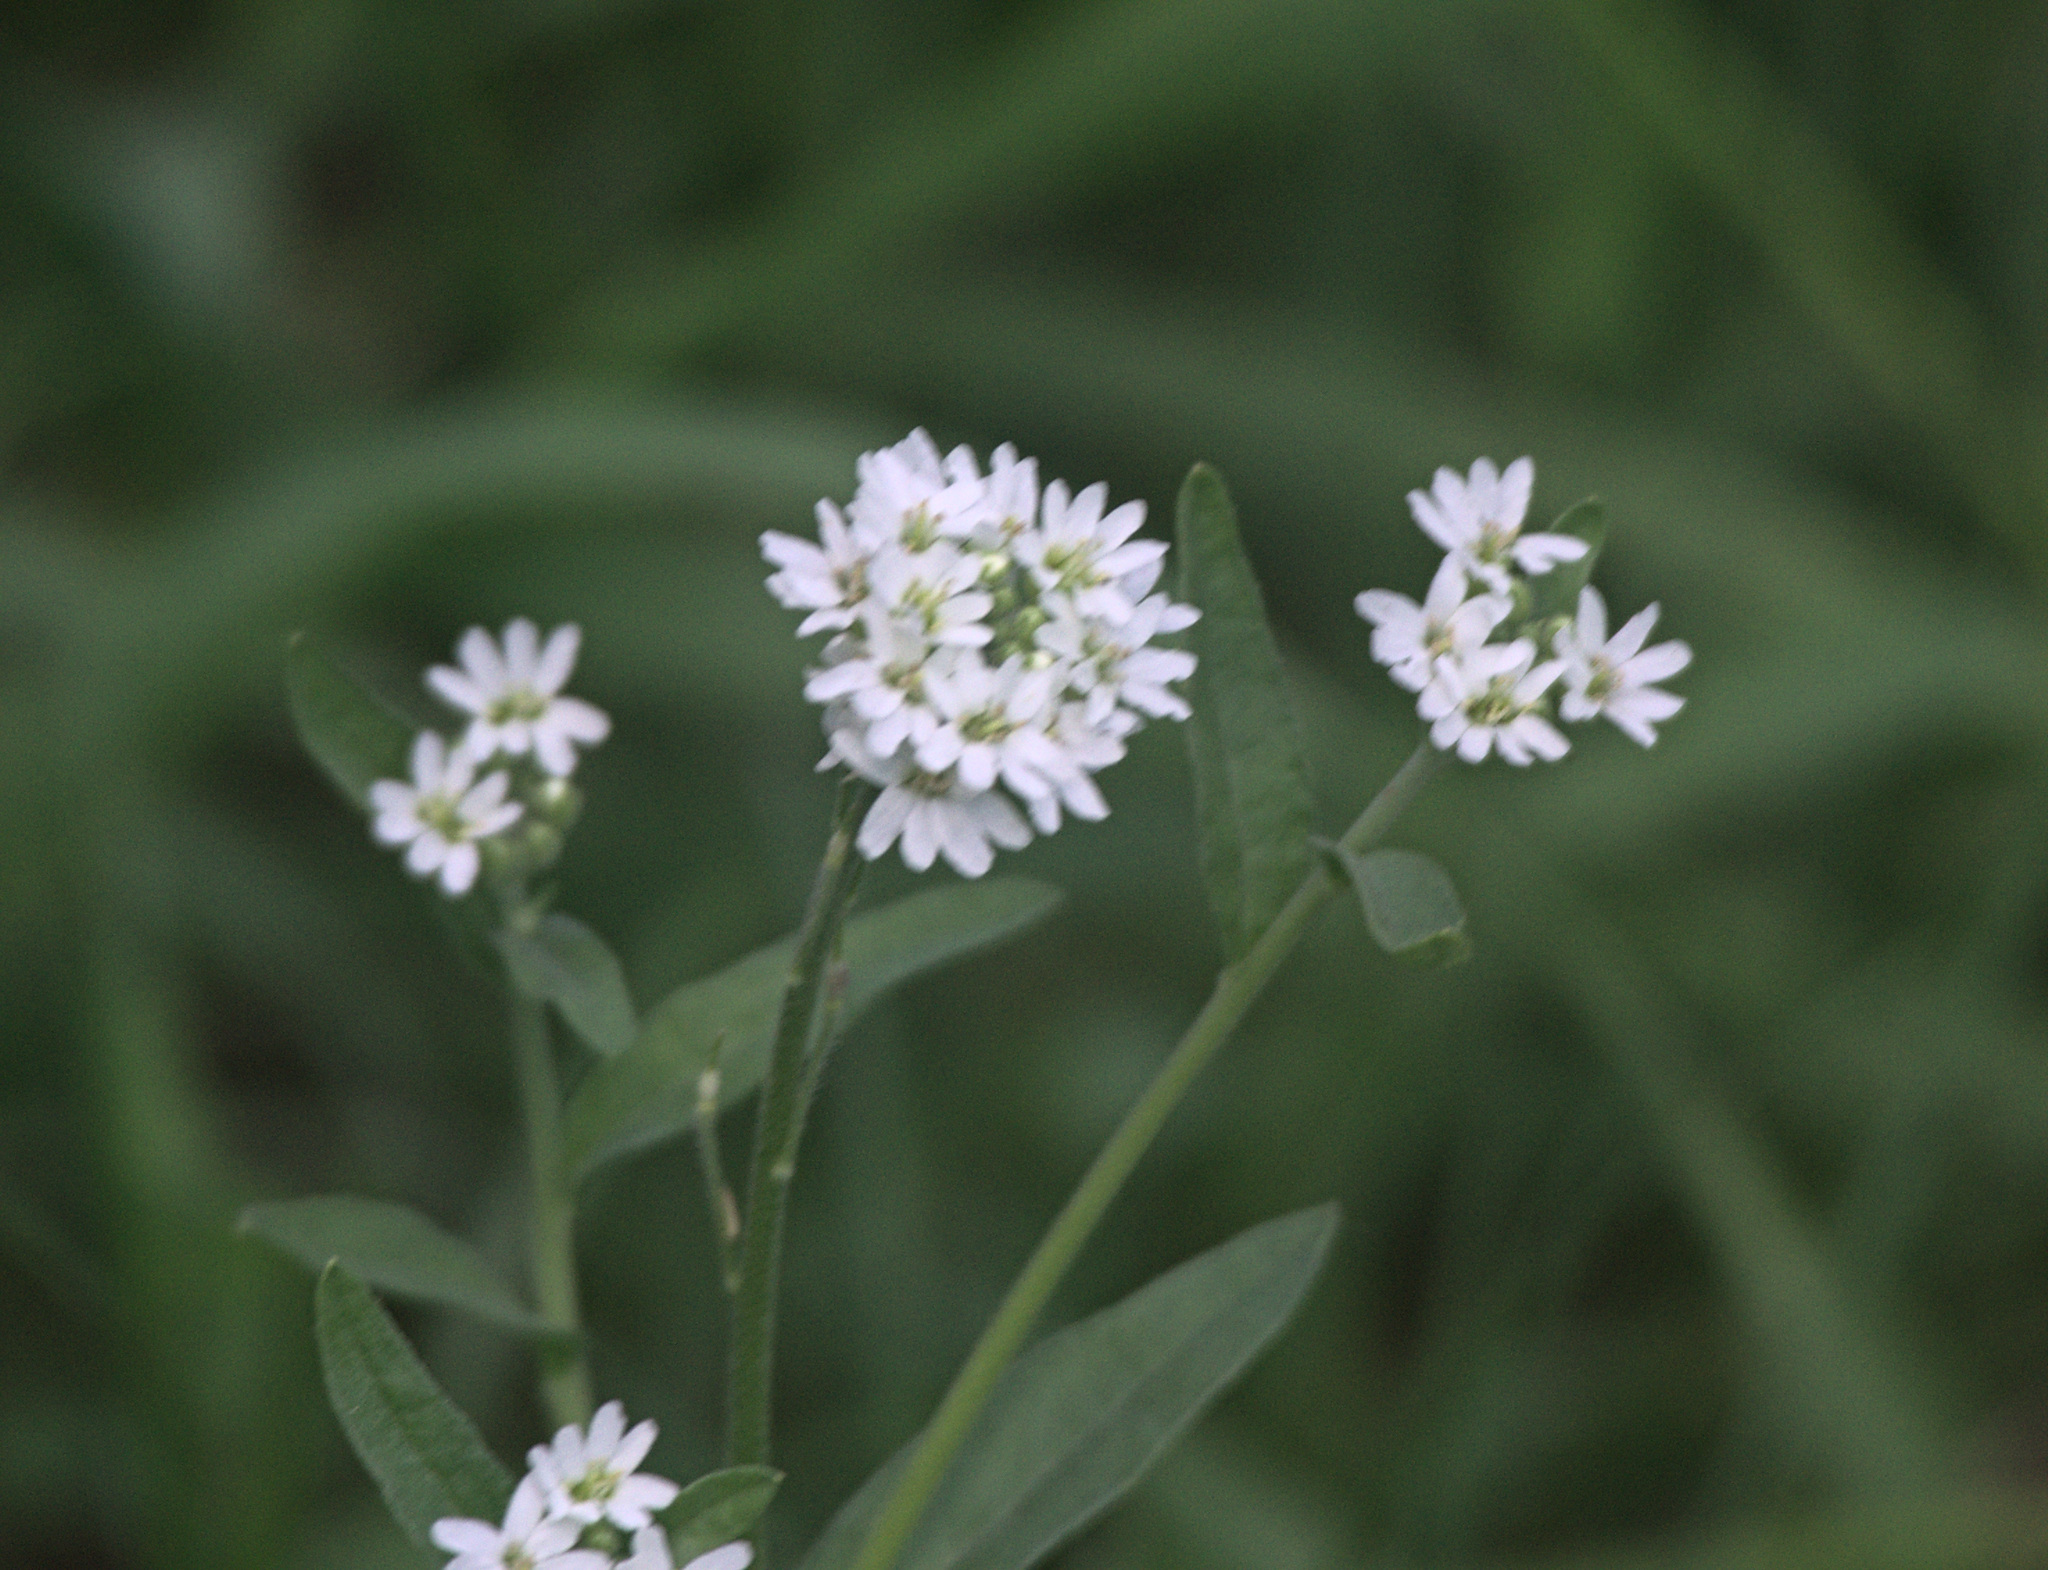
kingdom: Plantae
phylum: Tracheophyta
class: Magnoliopsida
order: Brassicales
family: Brassicaceae
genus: Berteroa
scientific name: Berteroa incana
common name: Hoary alison
